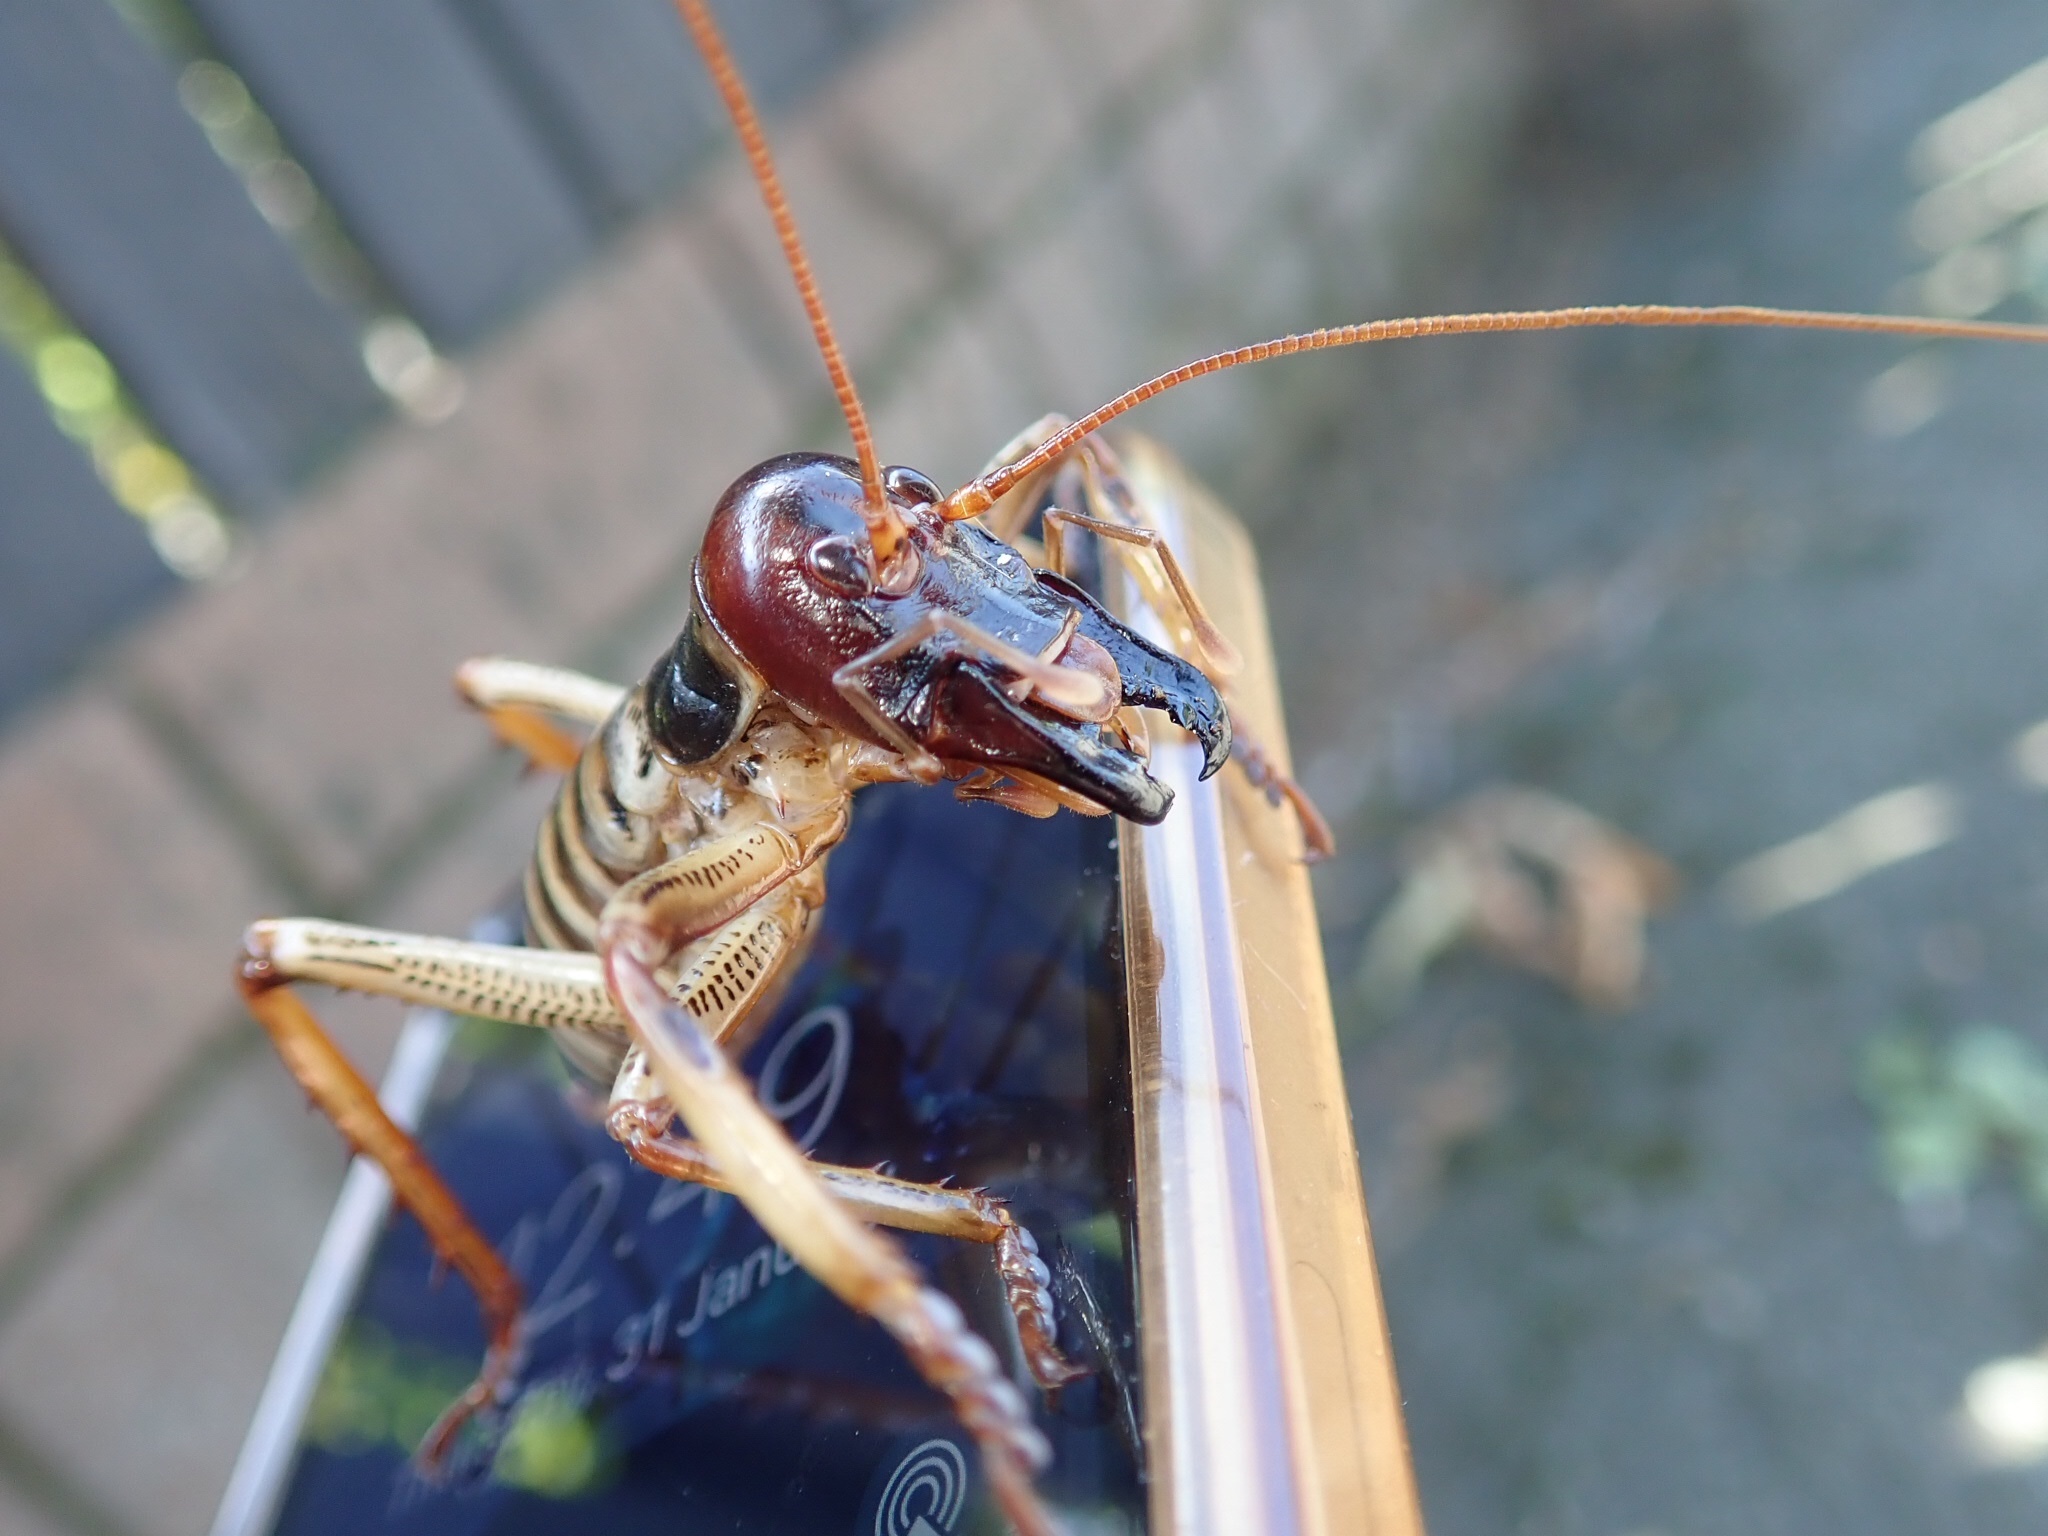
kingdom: Animalia
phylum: Arthropoda
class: Insecta
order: Orthoptera
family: Anostostomatidae
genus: Hemideina
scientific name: Hemideina crassidens
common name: Wellington tree weta
